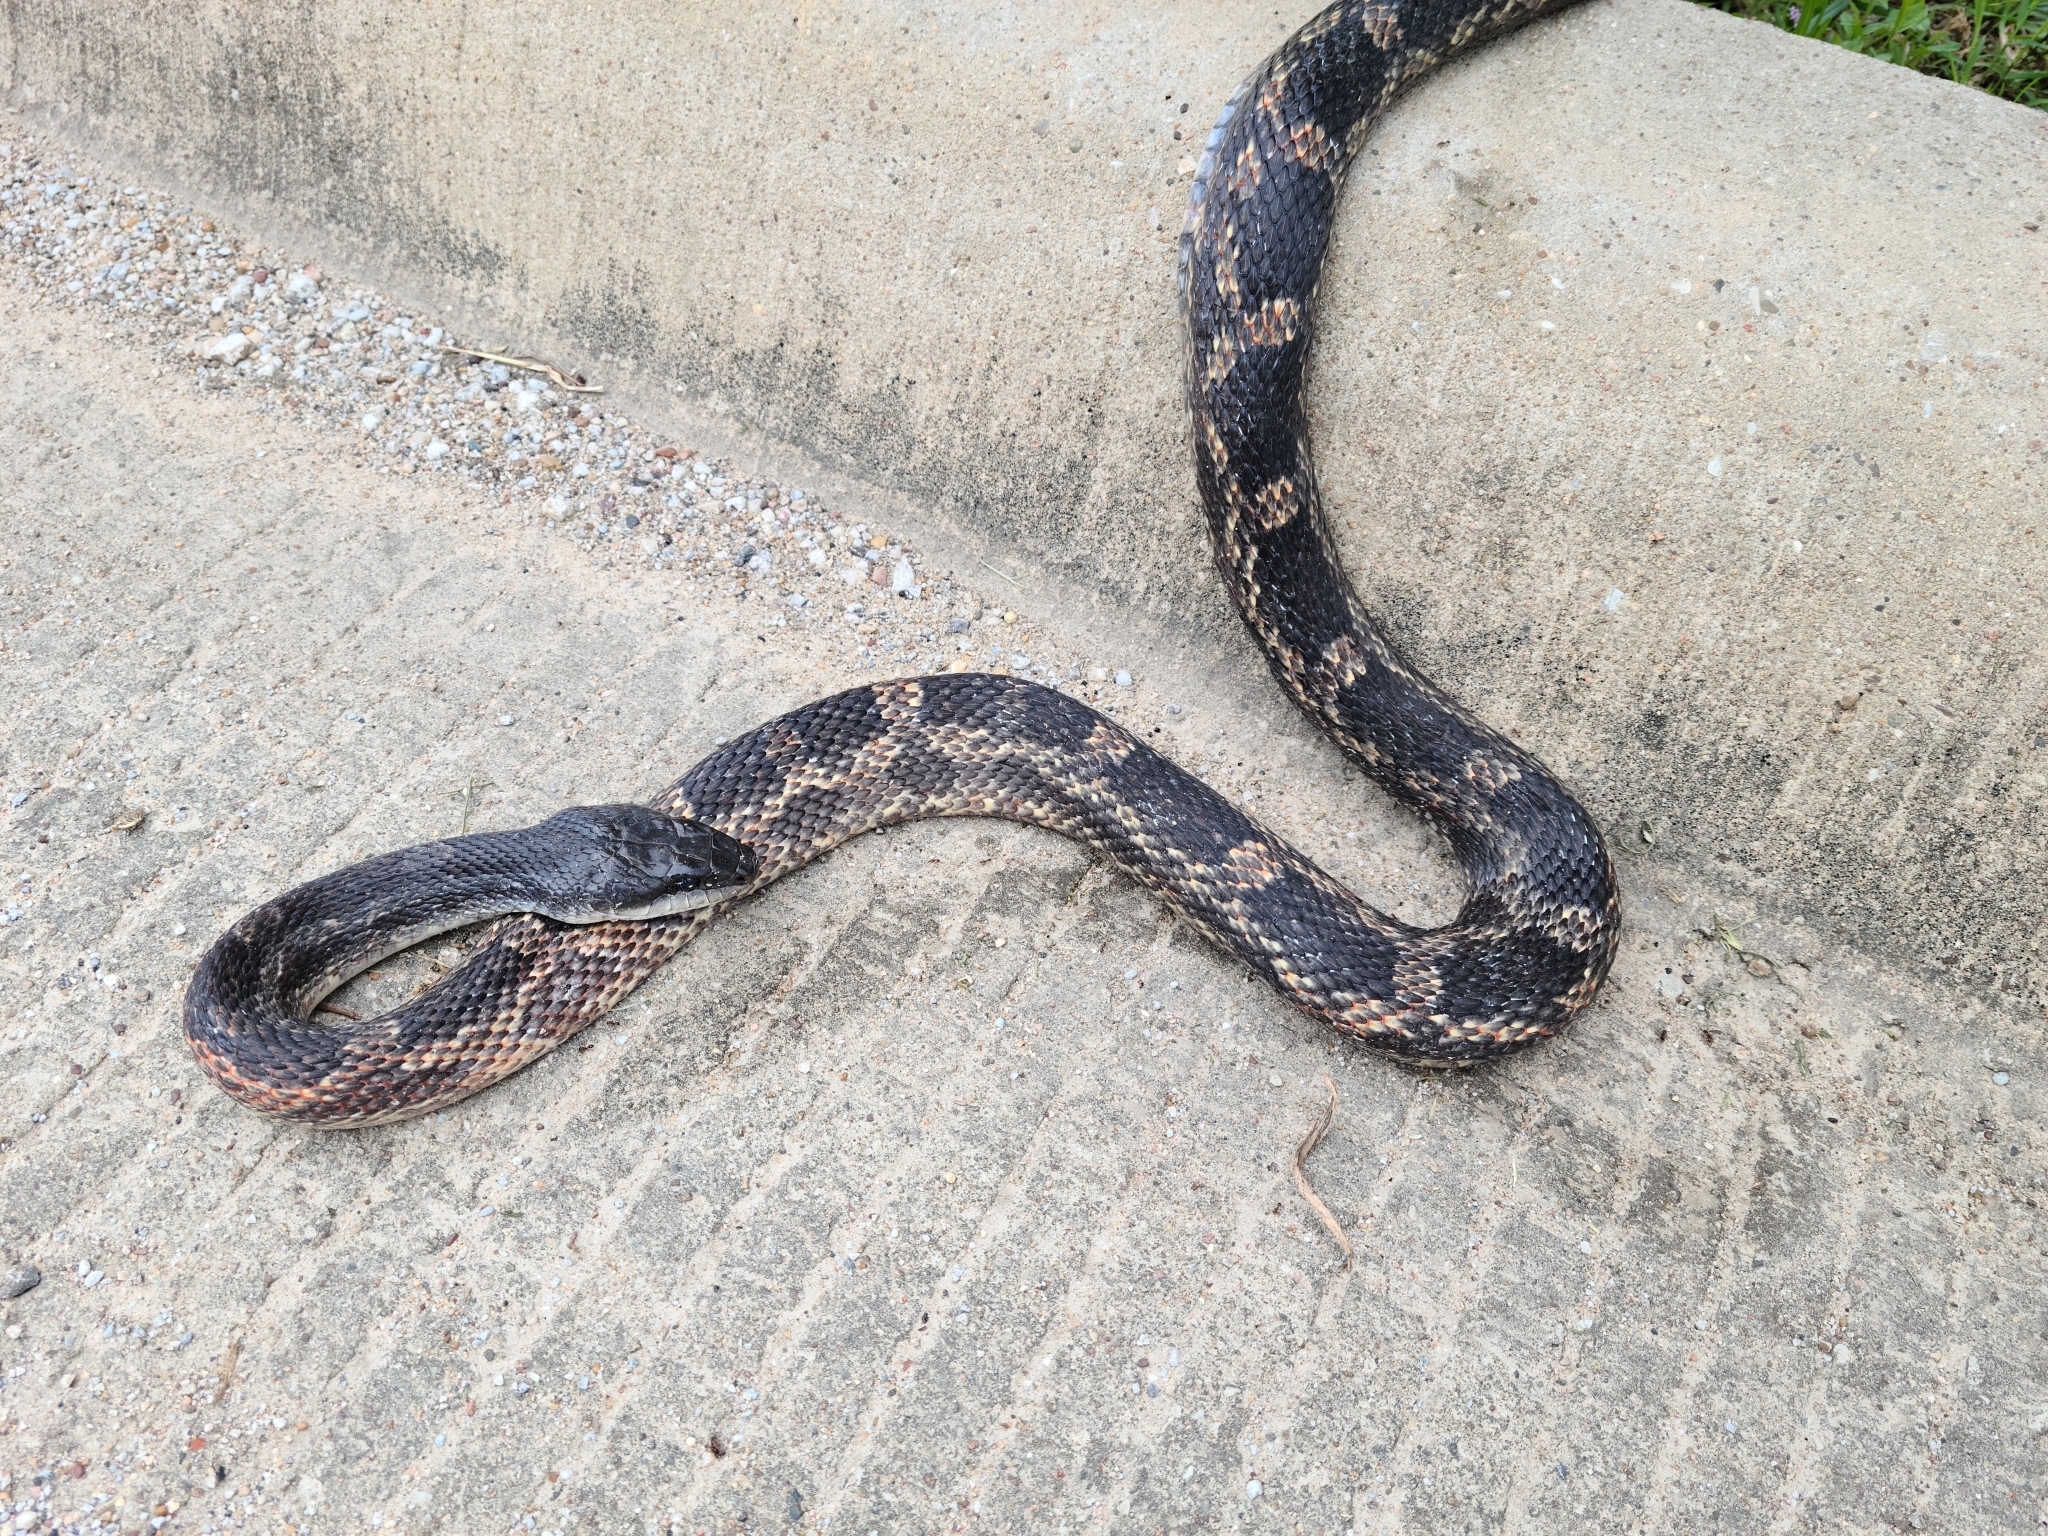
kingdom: Animalia
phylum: Chordata
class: Squamata
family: Colubridae
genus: Pantherophis
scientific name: Pantherophis obsoletus
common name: Black rat snake
